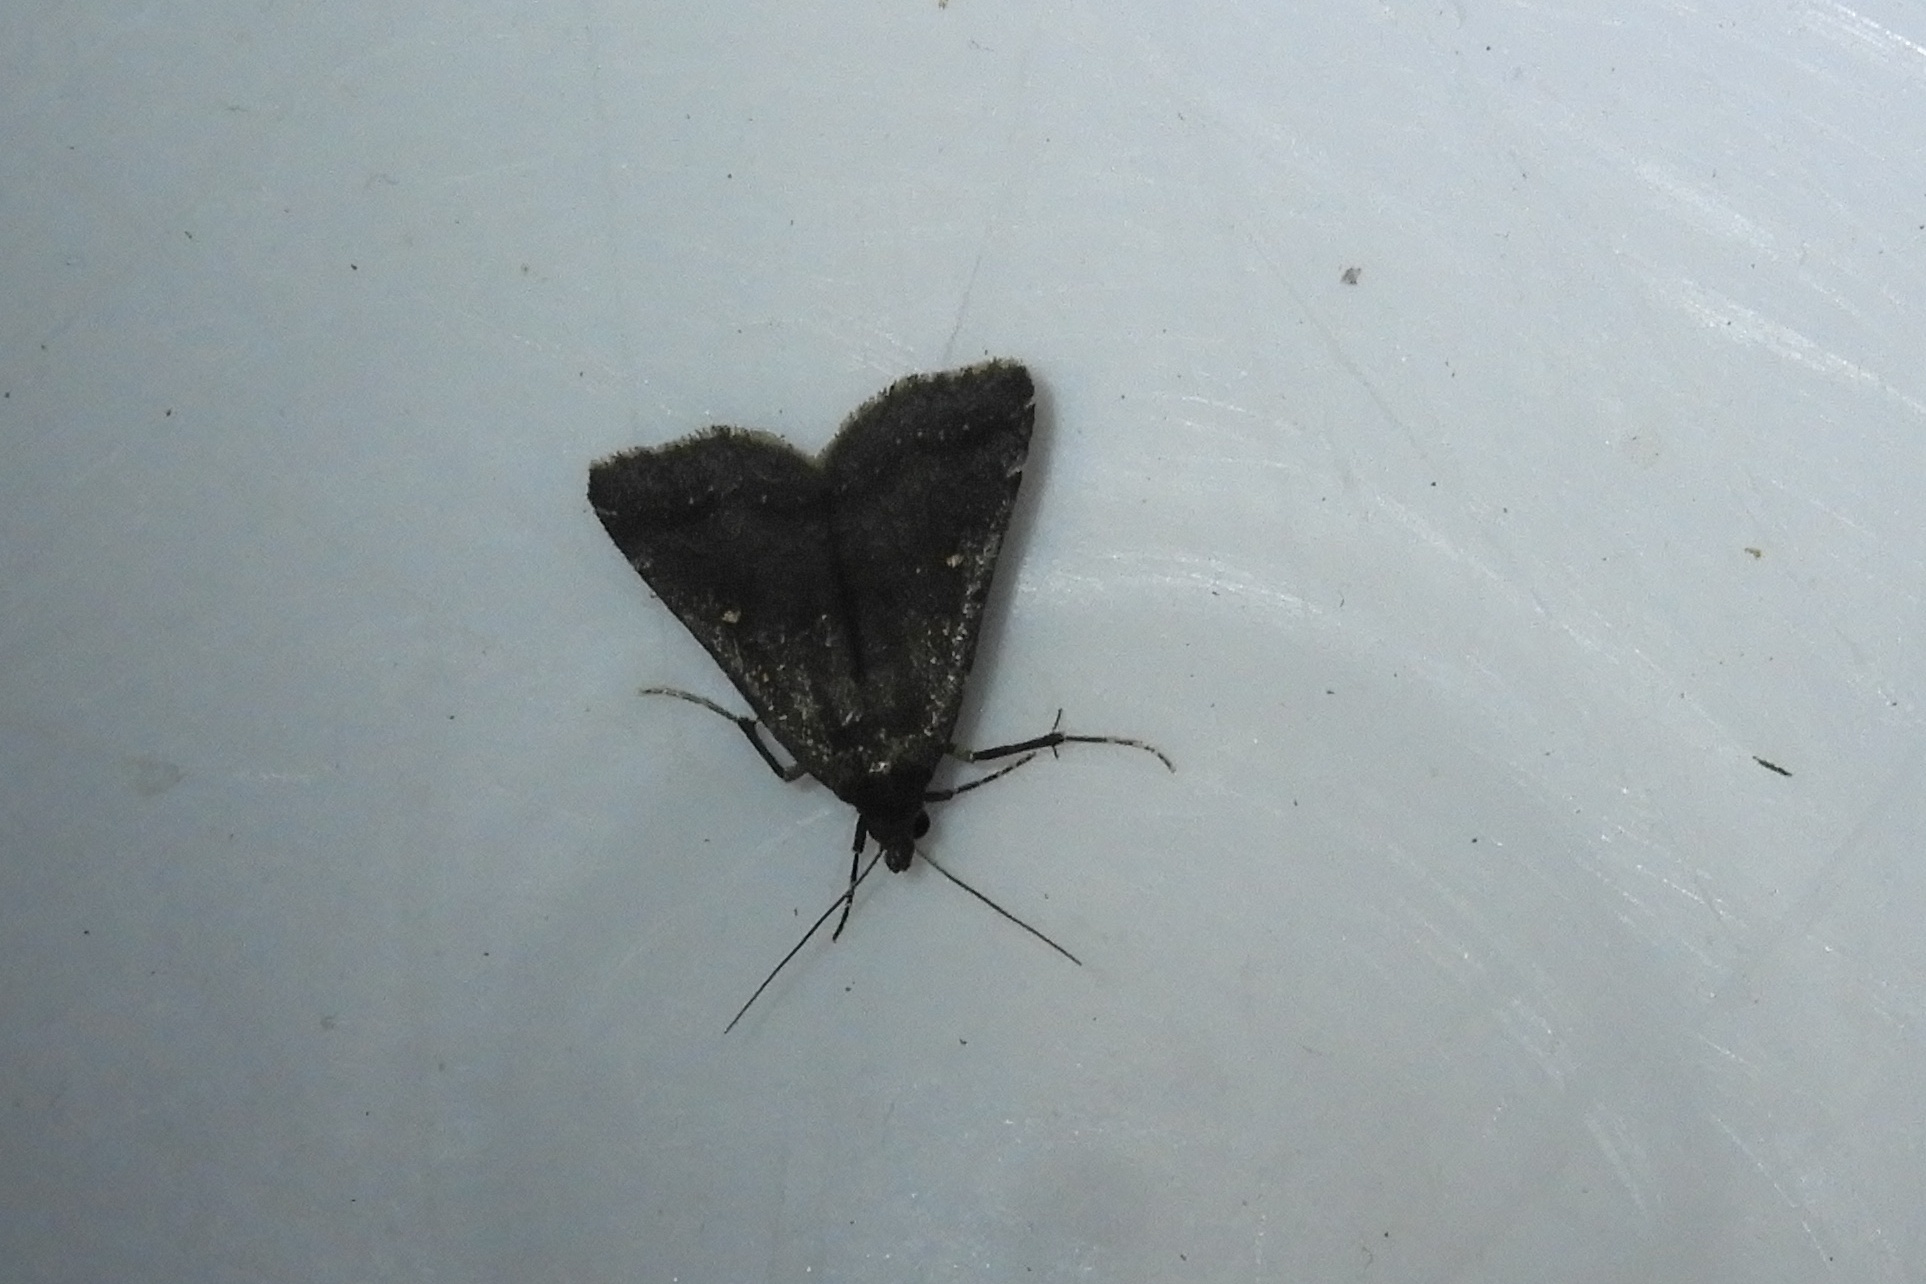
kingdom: Animalia
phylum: Arthropoda
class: Insecta
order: Lepidoptera
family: Erebidae
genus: Tetanolita
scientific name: Tetanolita mynesalis
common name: Smoky tetanolita moth
